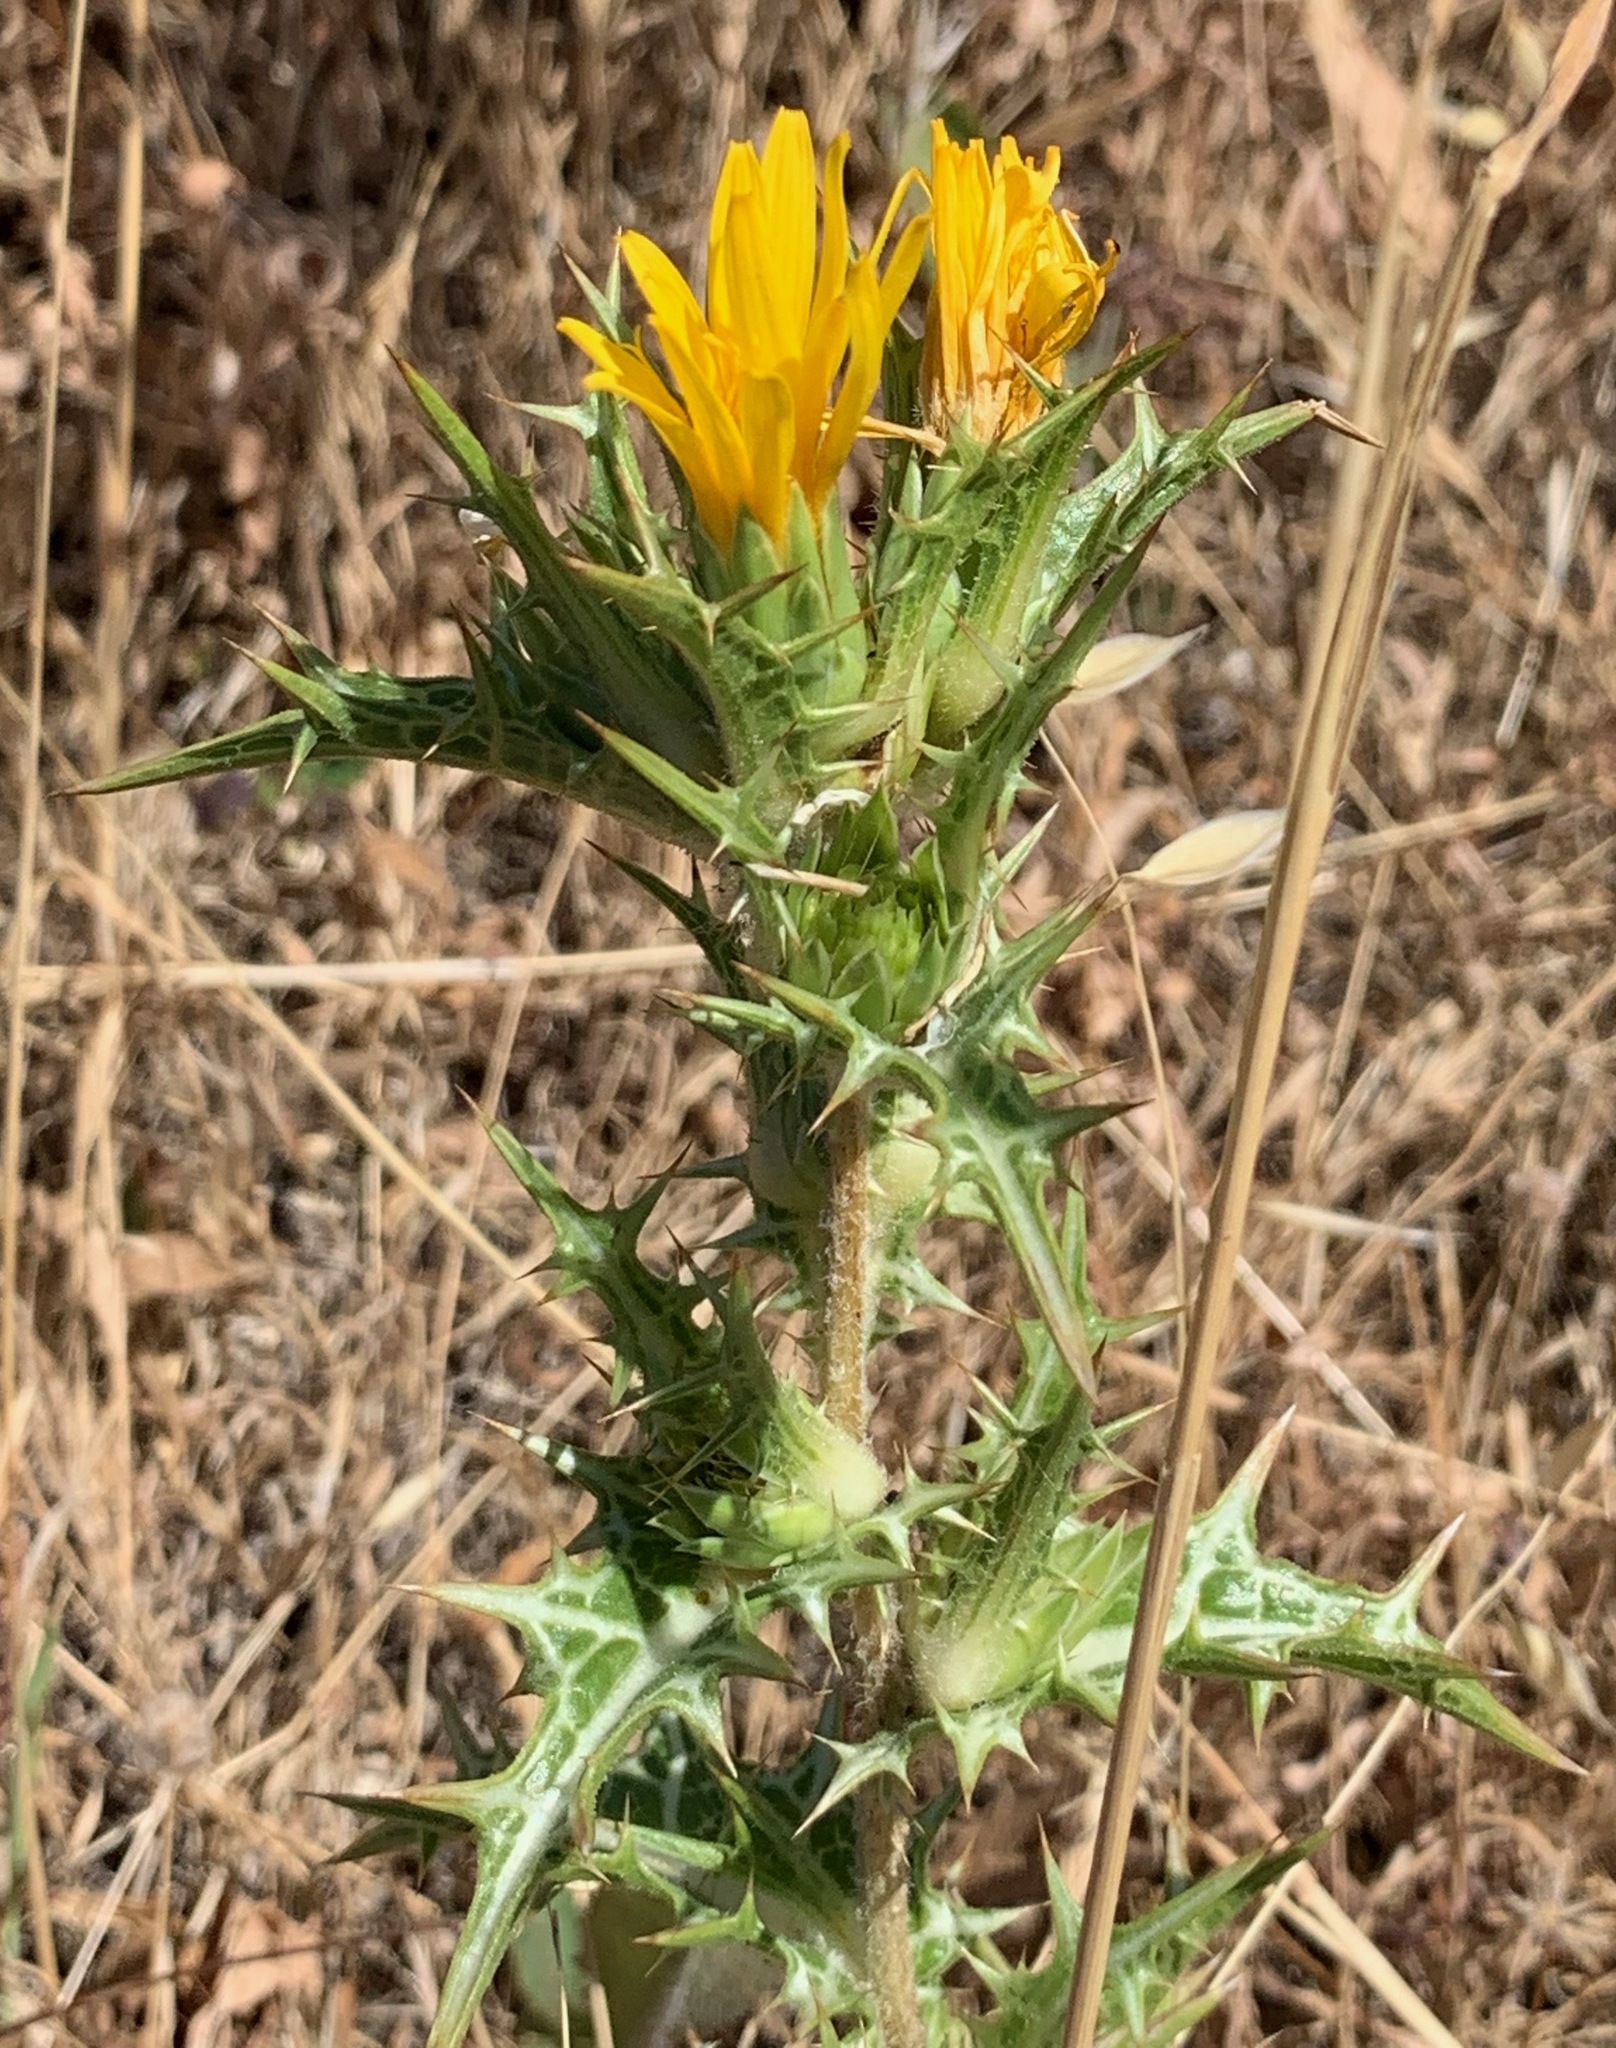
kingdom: Plantae
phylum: Tracheophyta
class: Magnoliopsida
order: Asterales
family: Asteraceae
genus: Scolymus
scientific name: Scolymus hispanicus
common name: Golden thistle
